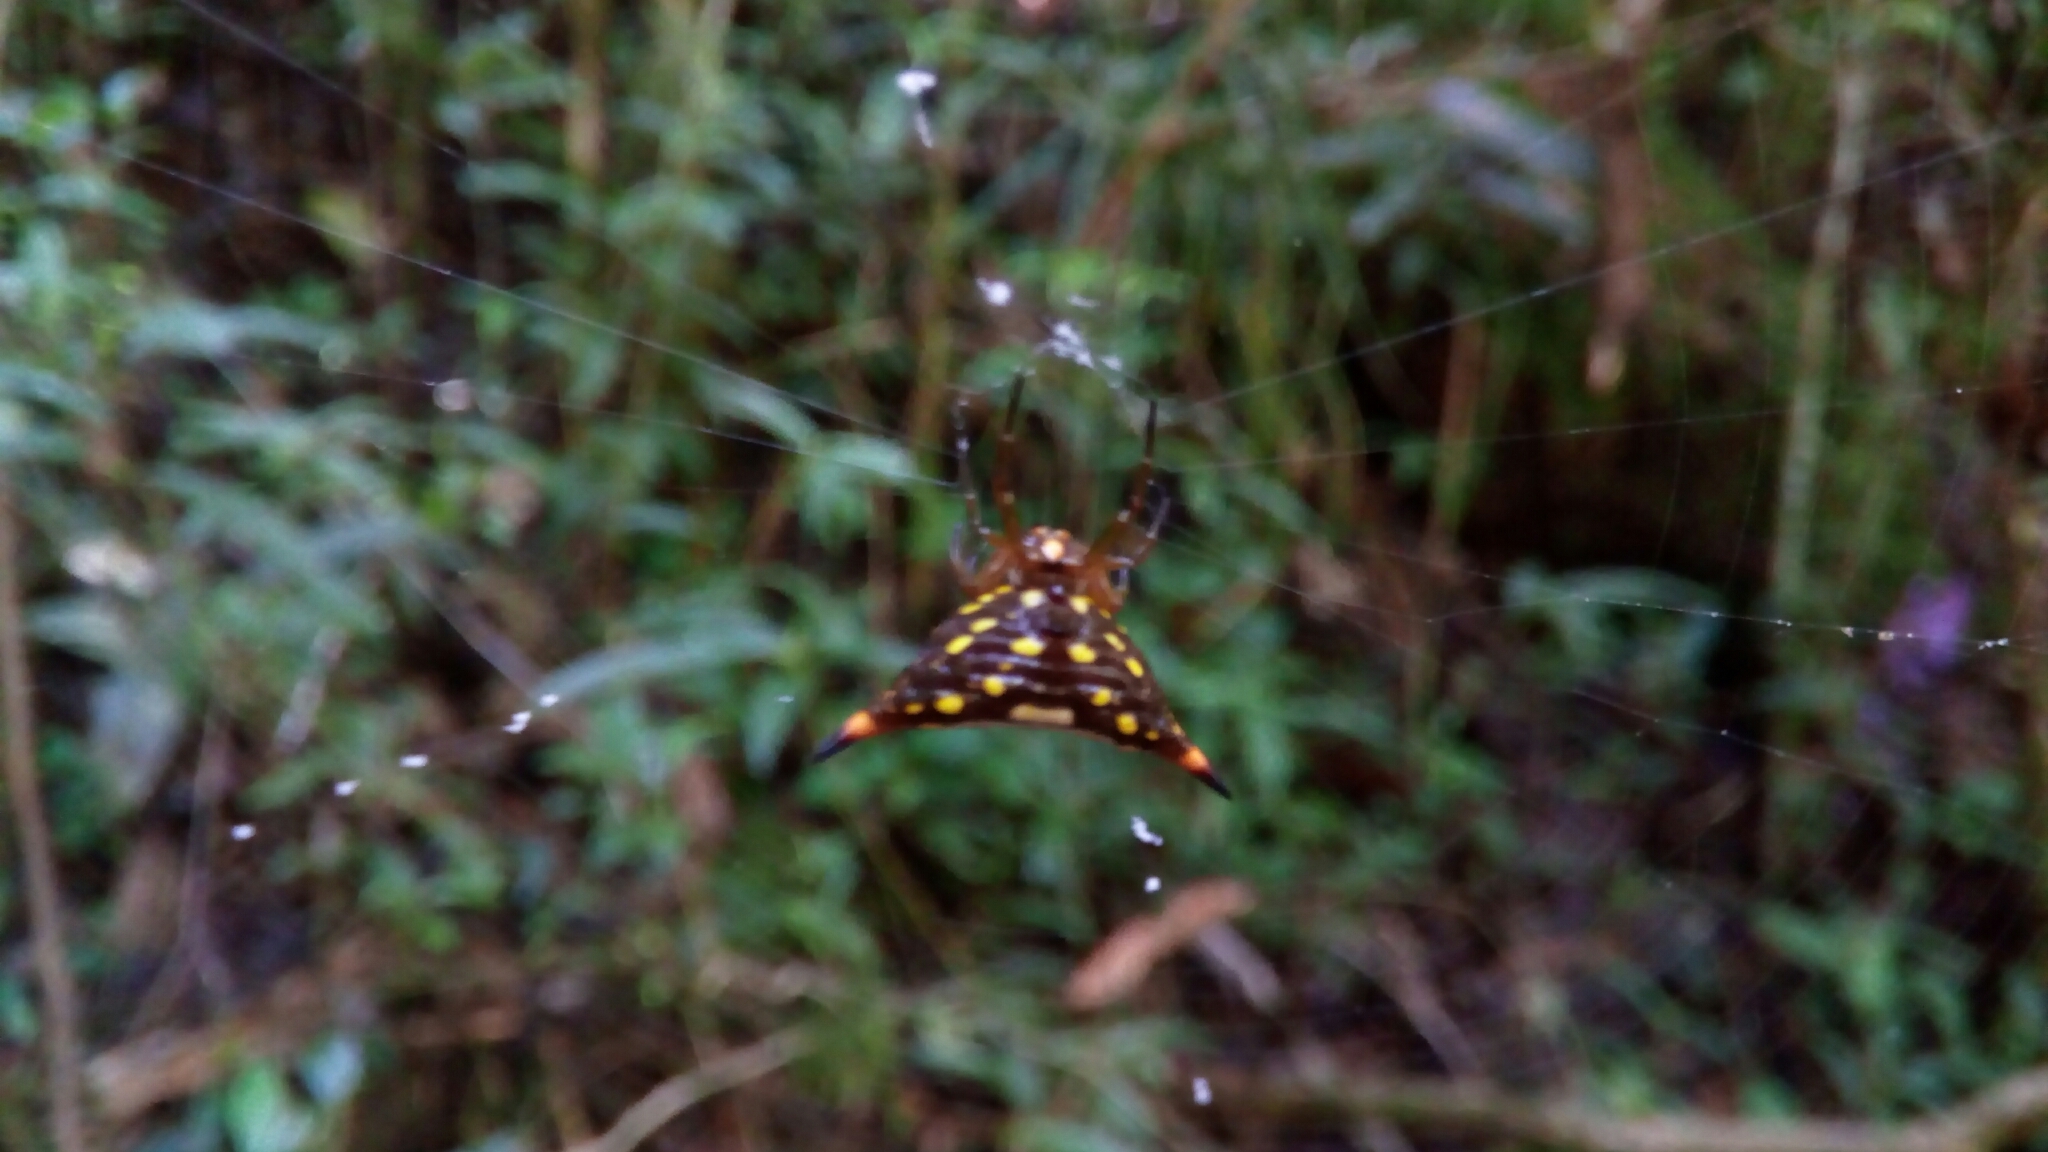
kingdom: Animalia
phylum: Arthropoda
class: Arachnida
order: Araneae
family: Araneidae
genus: Acrosomoides
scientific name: Acrosomoides acrosomoides
